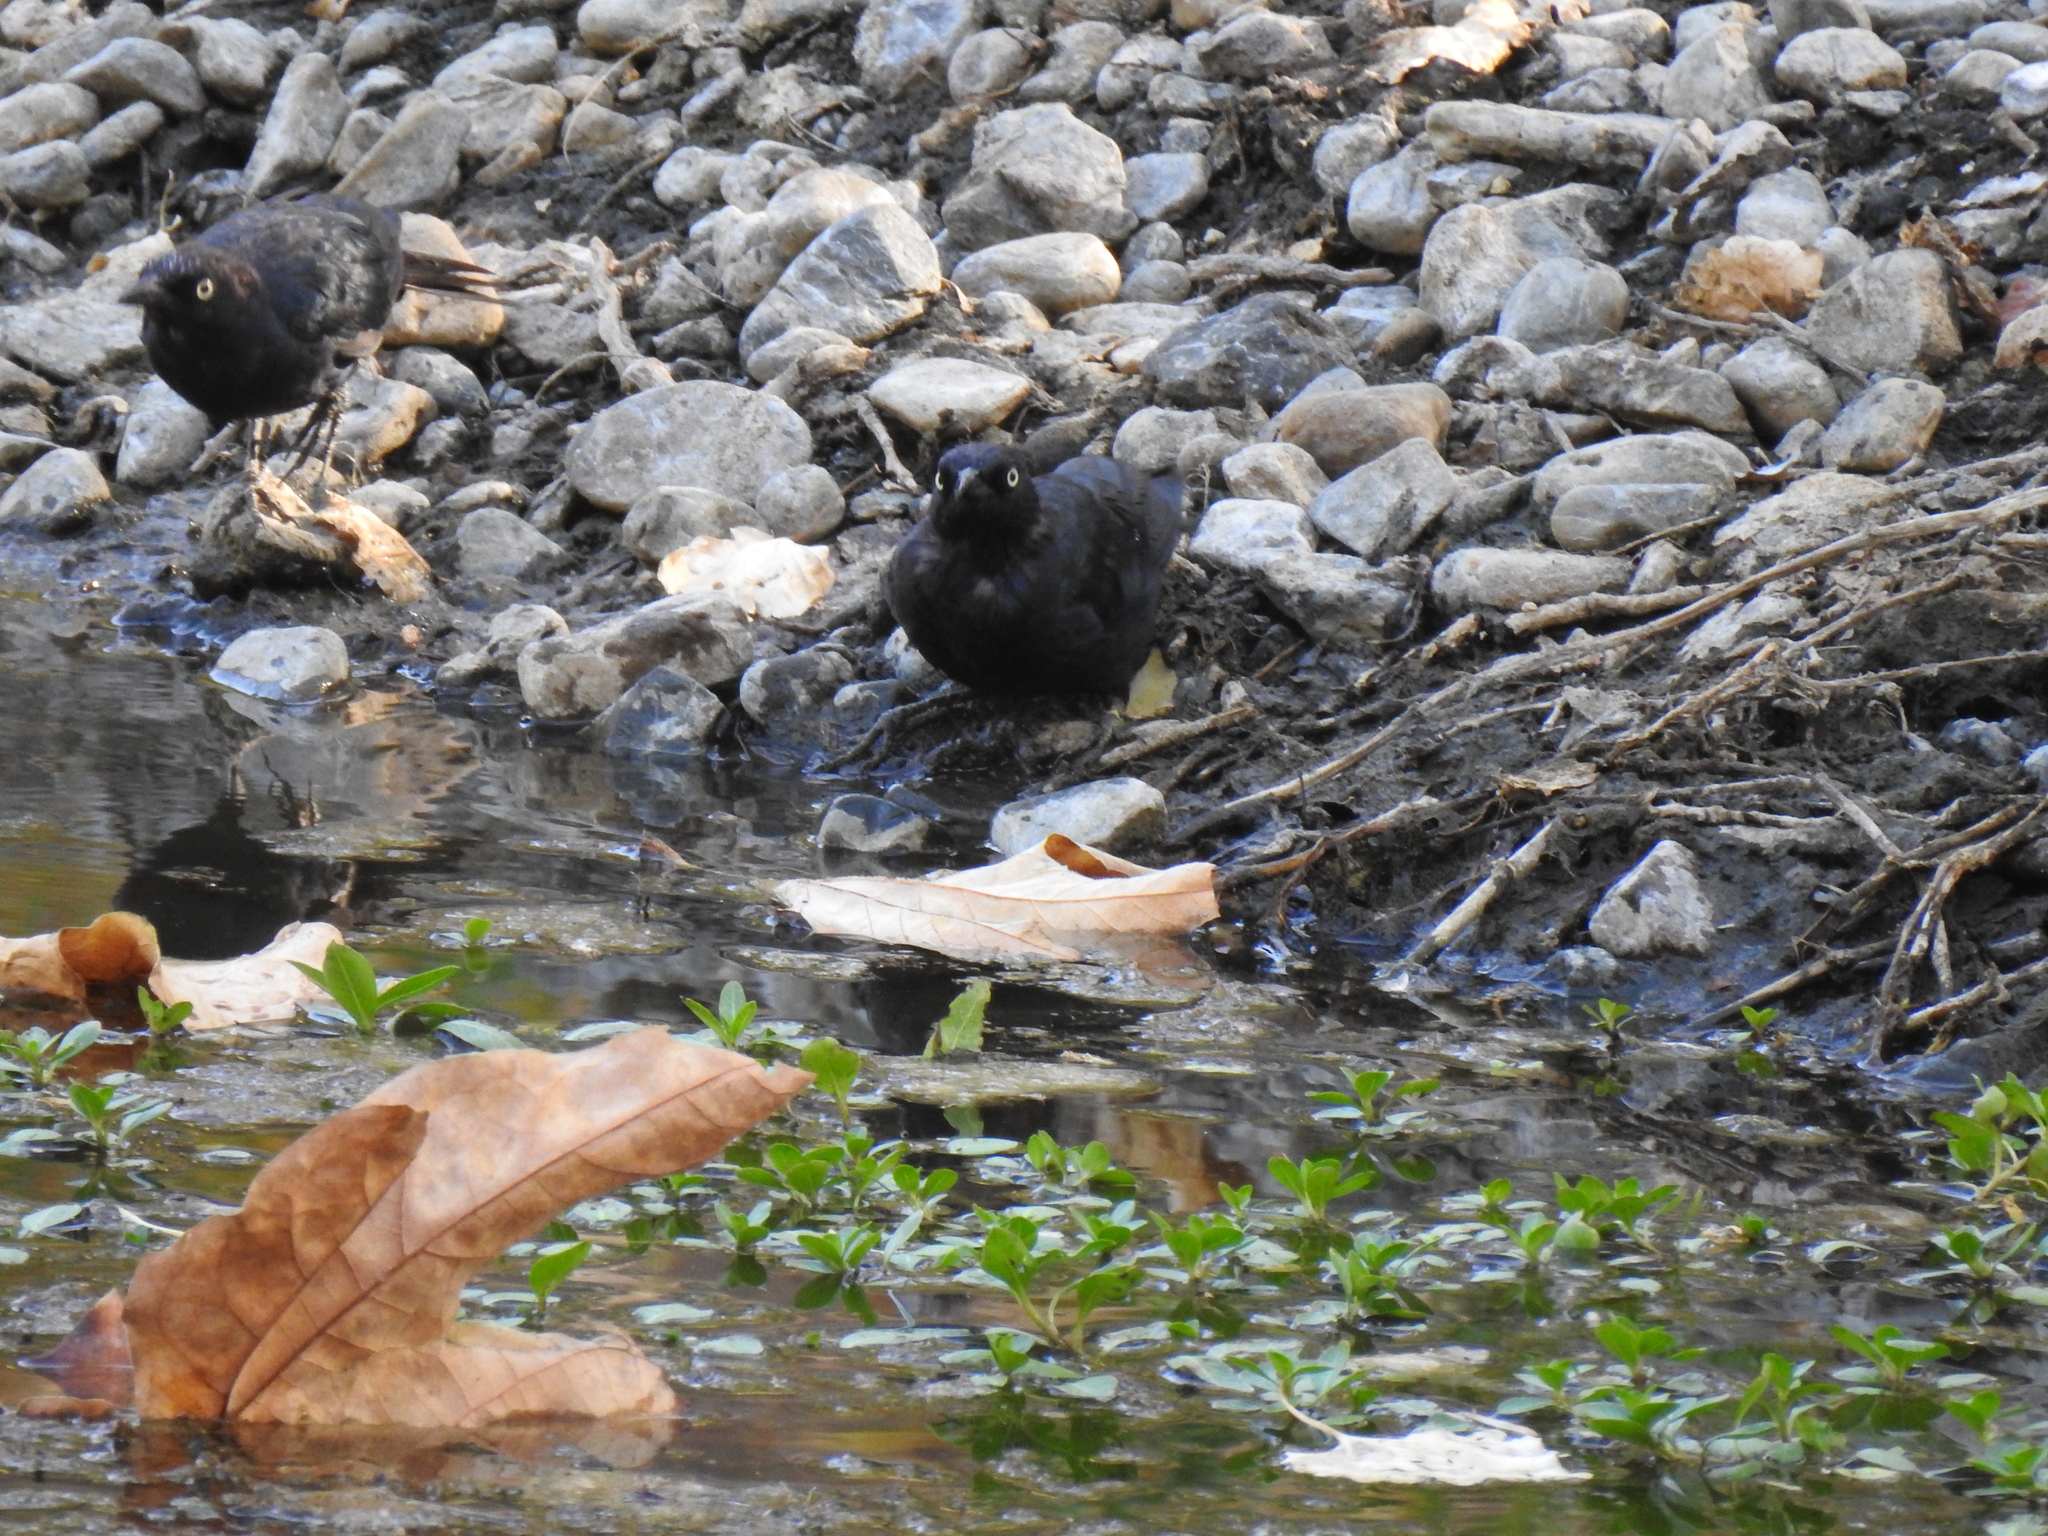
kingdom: Animalia
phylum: Chordata
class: Aves
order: Passeriformes
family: Icteridae
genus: Euphagus
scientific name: Euphagus cyanocephalus
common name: Brewer's blackbird
